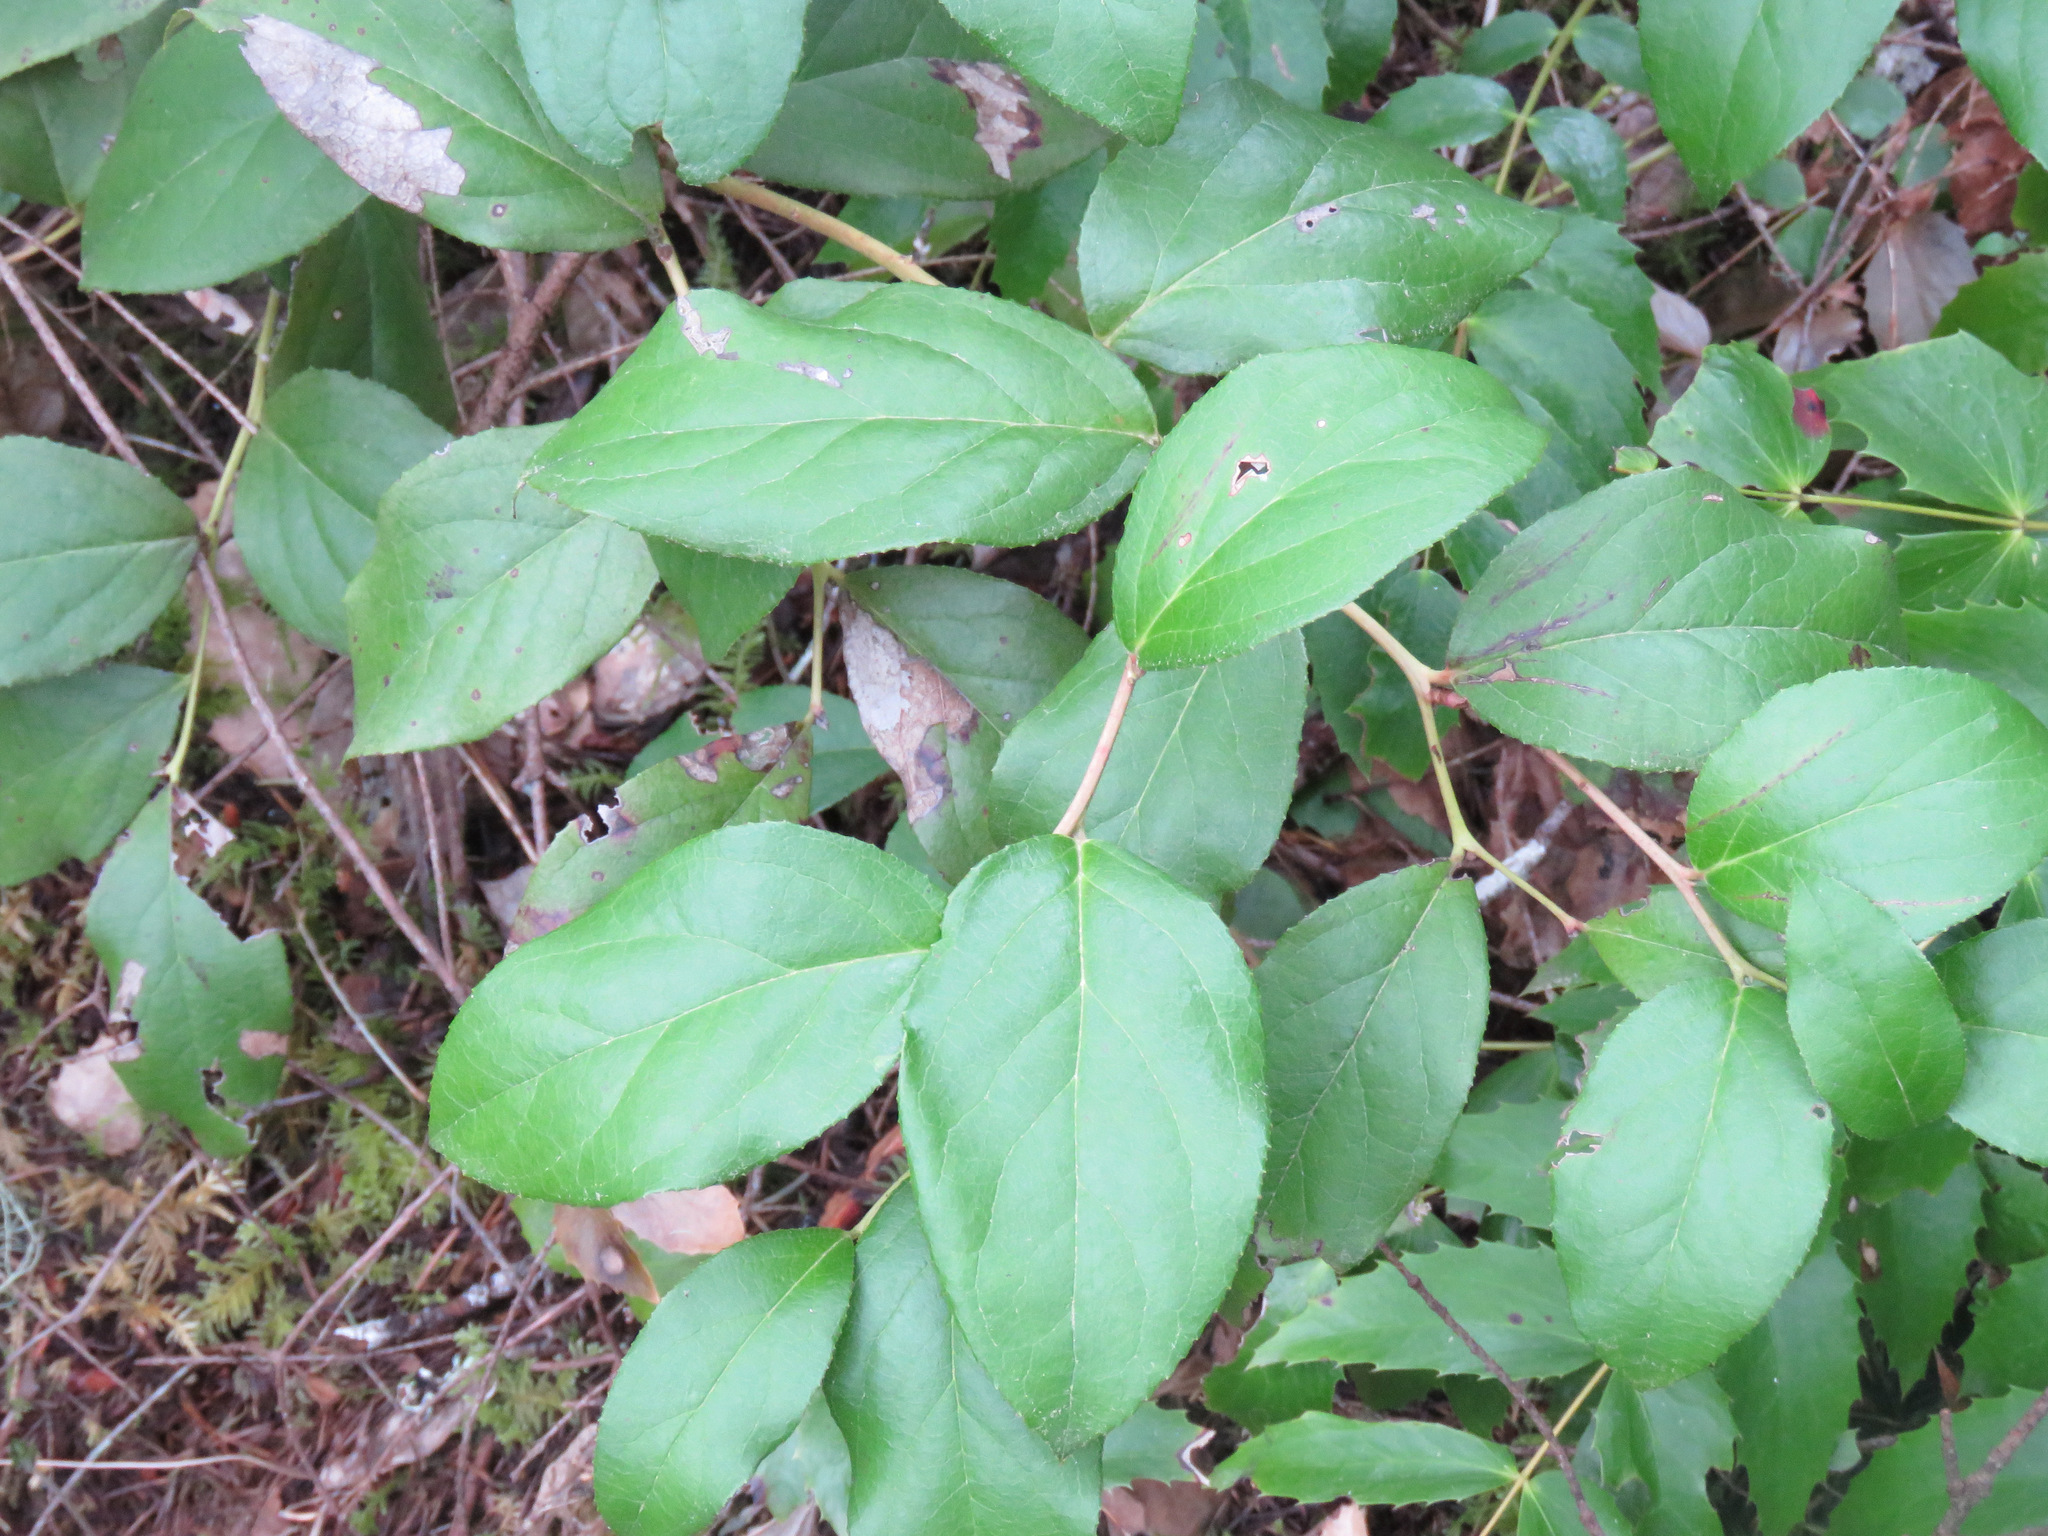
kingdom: Plantae
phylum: Tracheophyta
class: Magnoliopsida
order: Ericales
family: Ericaceae
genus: Gaultheria
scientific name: Gaultheria shallon
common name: Shallon
